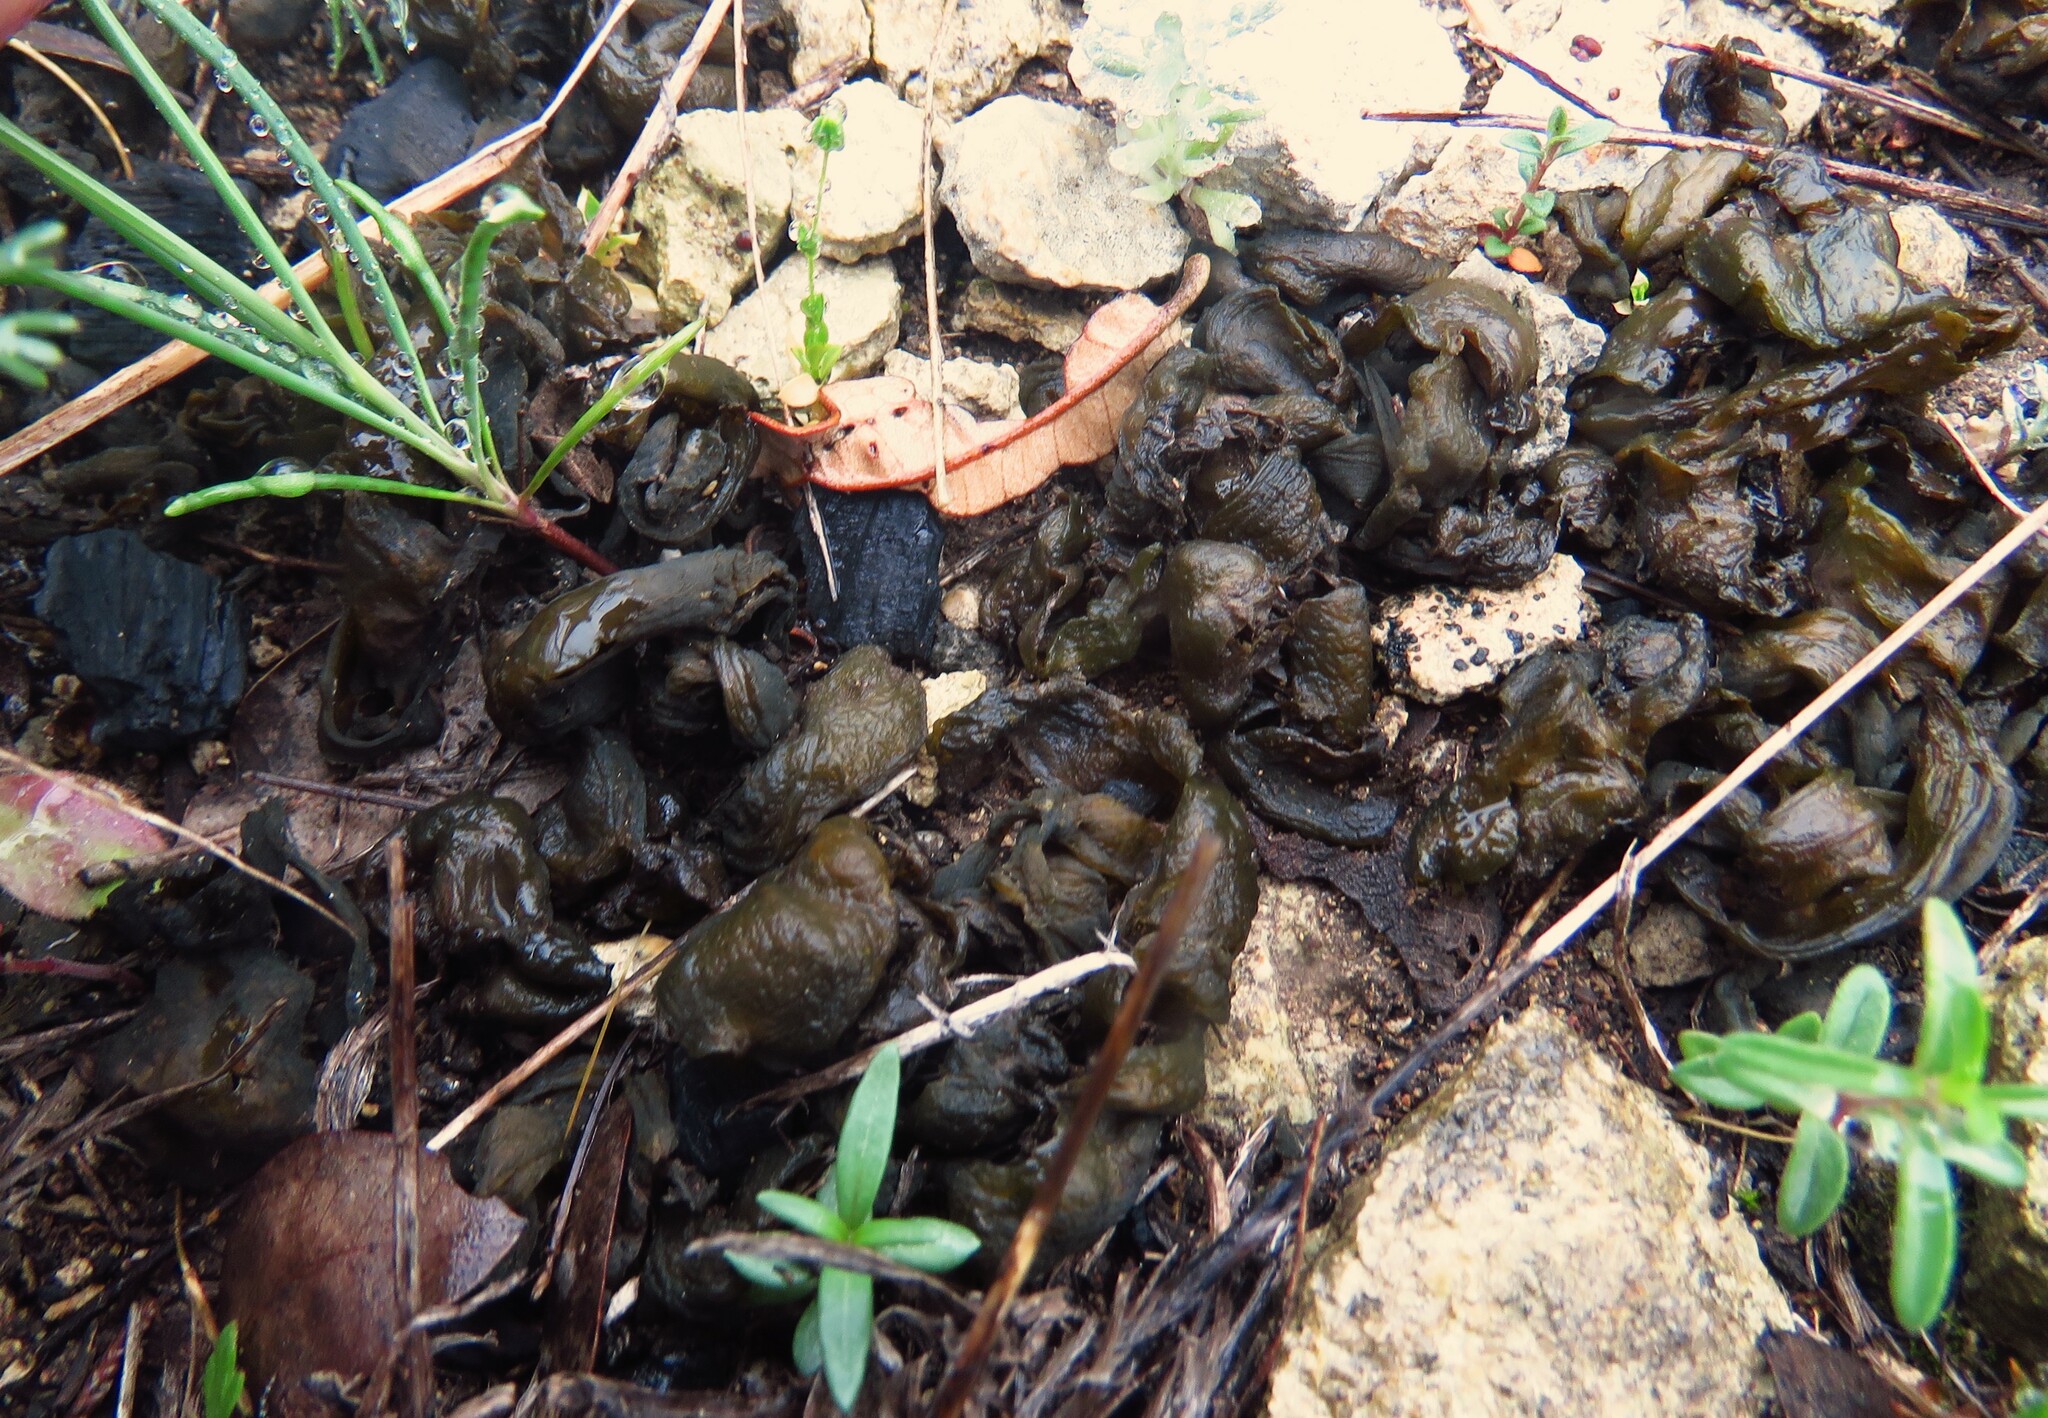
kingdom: Bacteria
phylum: Cyanobacteria
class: Cyanobacteriia
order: Cyanobacteriales
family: Nostocaceae
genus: Nostoc
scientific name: Nostoc commune
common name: Star jelly
